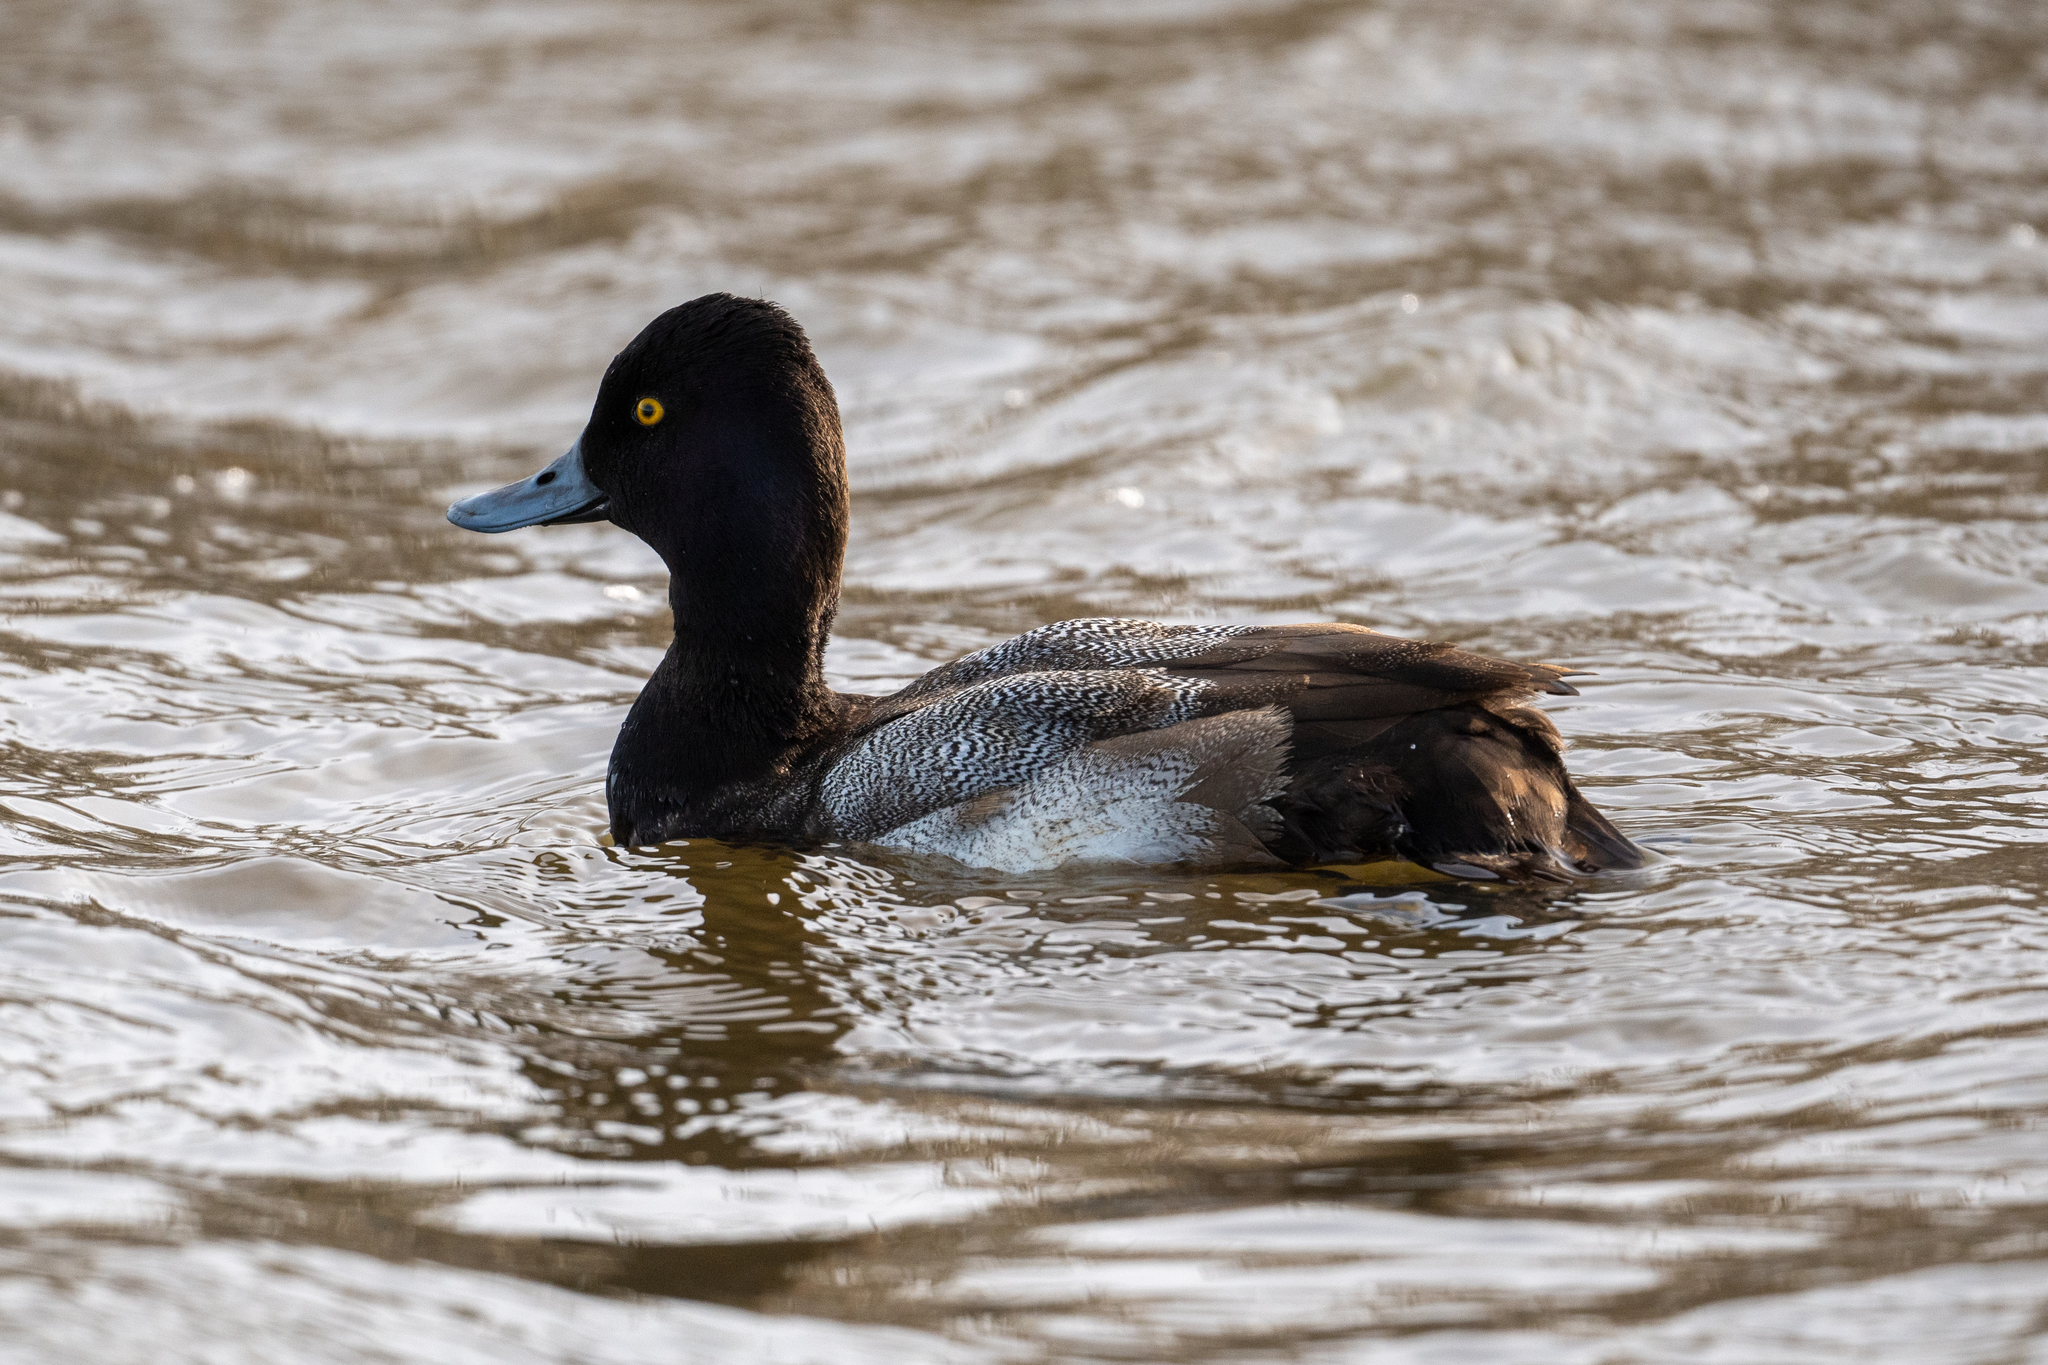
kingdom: Animalia
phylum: Chordata
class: Aves
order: Anseriformes
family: Anatidae
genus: Aythya
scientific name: Aythya affinis
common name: Lesser scaup
